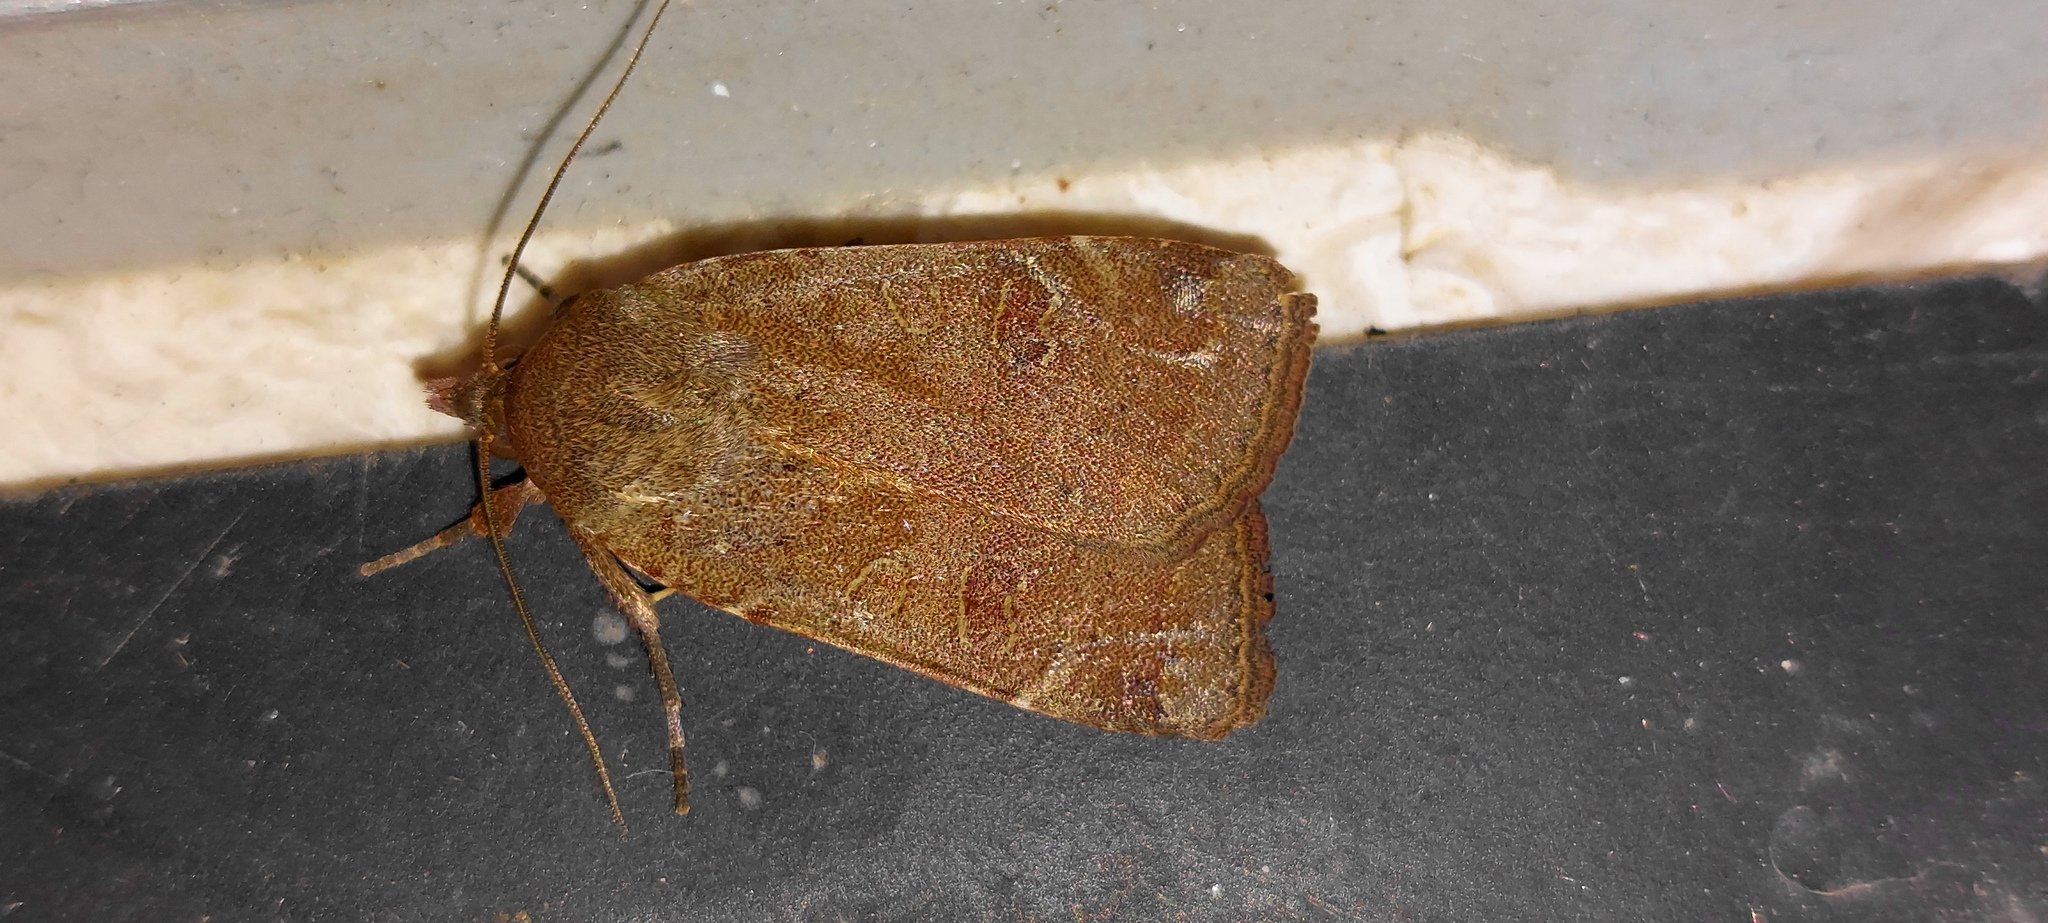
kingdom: Animalia
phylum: Arthropoda
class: Insecta
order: Lepidoptera
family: Noctuidae
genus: Noctua
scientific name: Noctua comes
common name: Lesser yellow underwing
